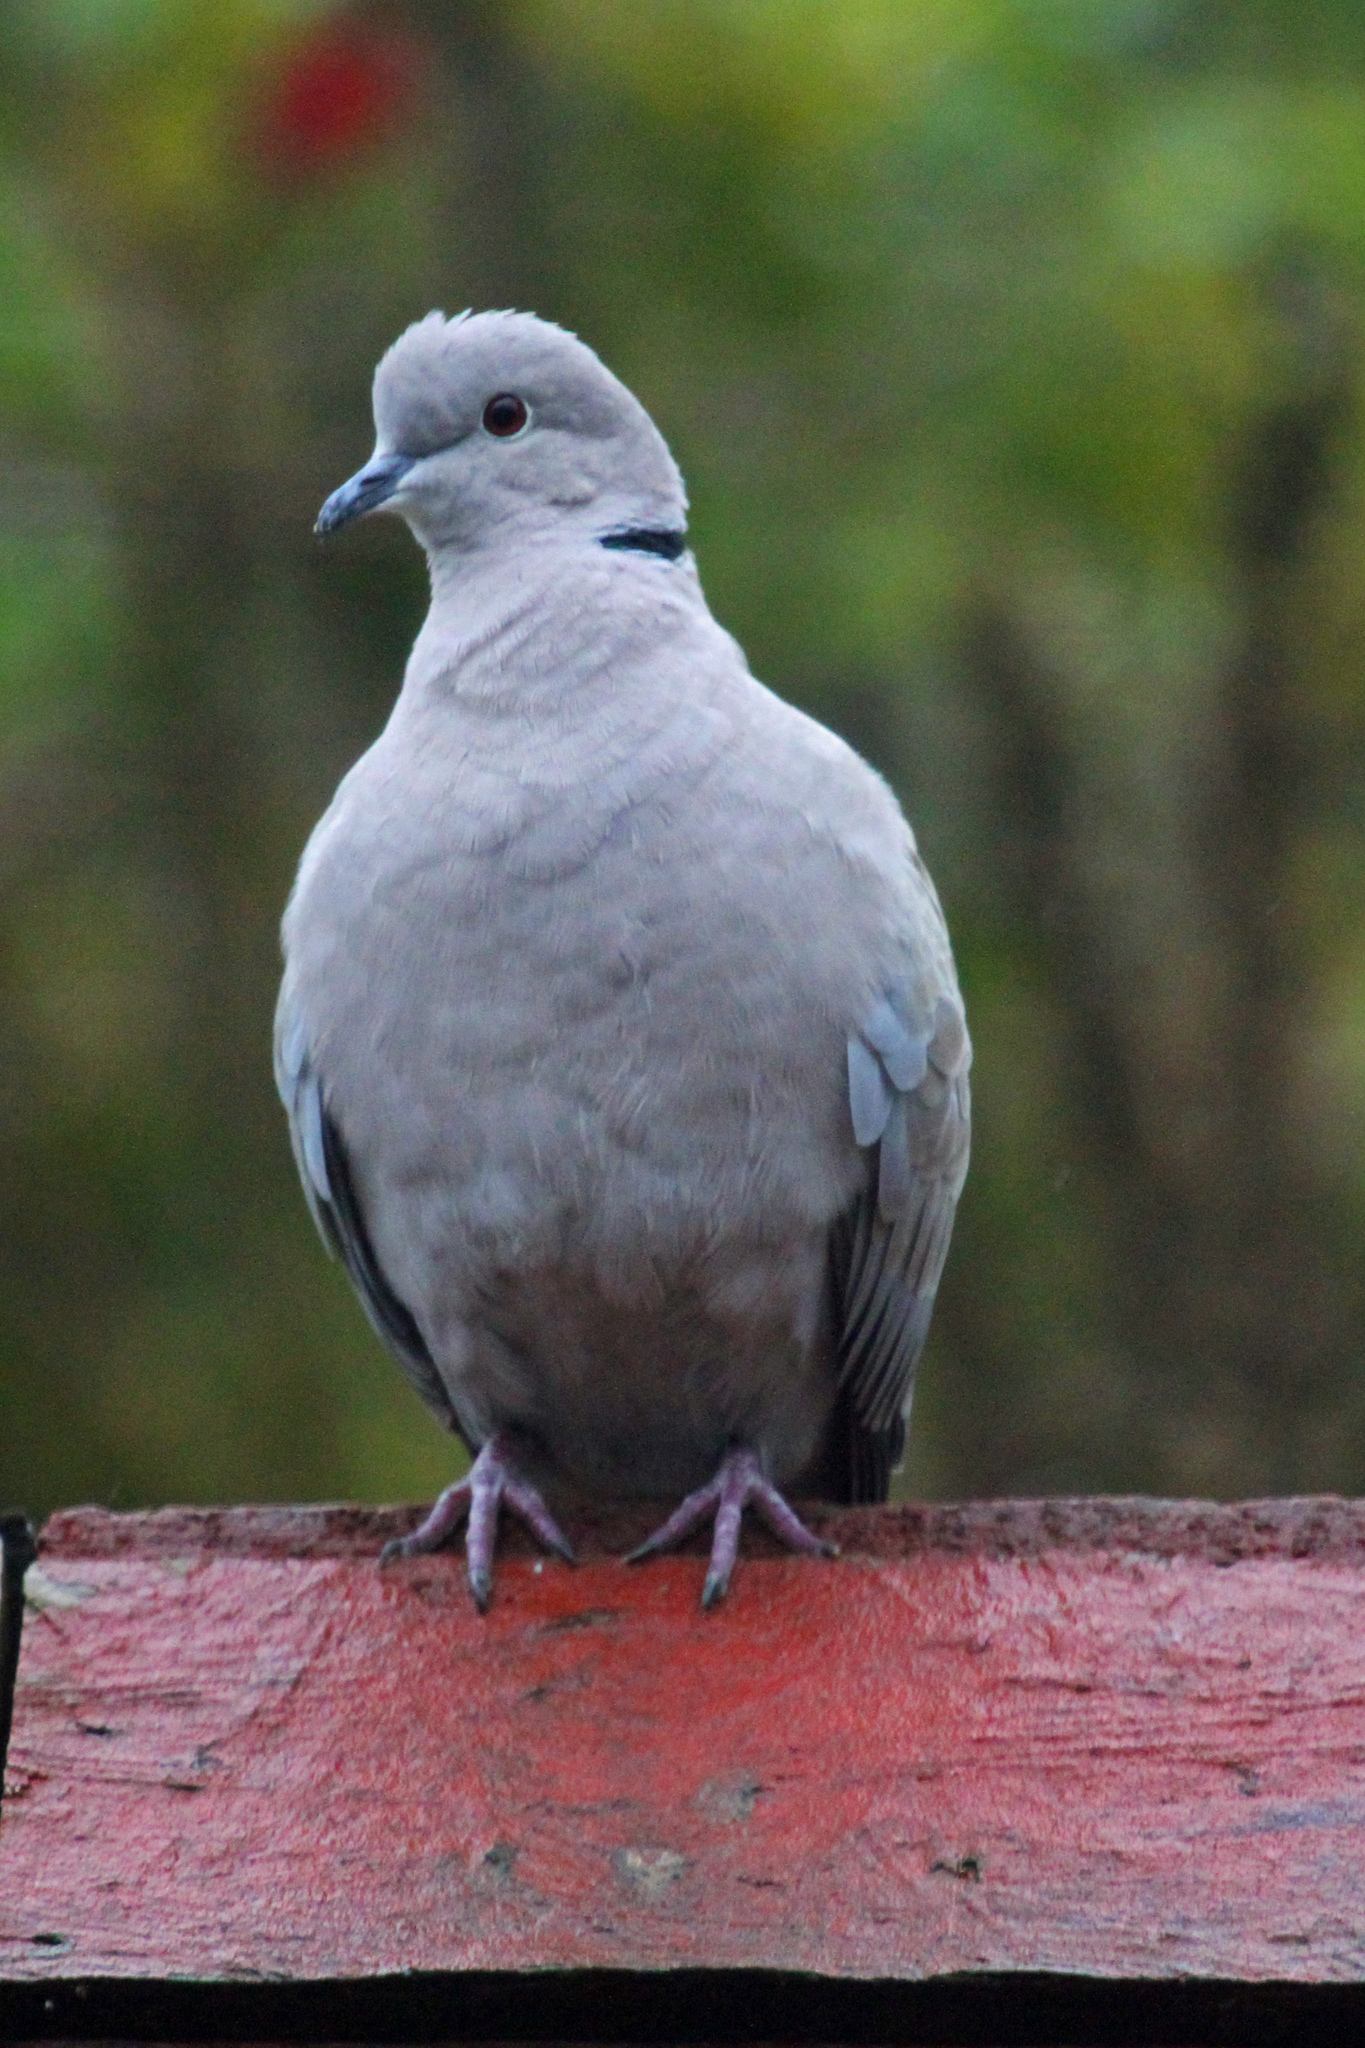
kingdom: Animalia
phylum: Chordata
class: Aves
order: Columbiformes
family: Columbidae
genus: Streptopelia
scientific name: Streptopelia decaocto
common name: Eurasian collared dove
